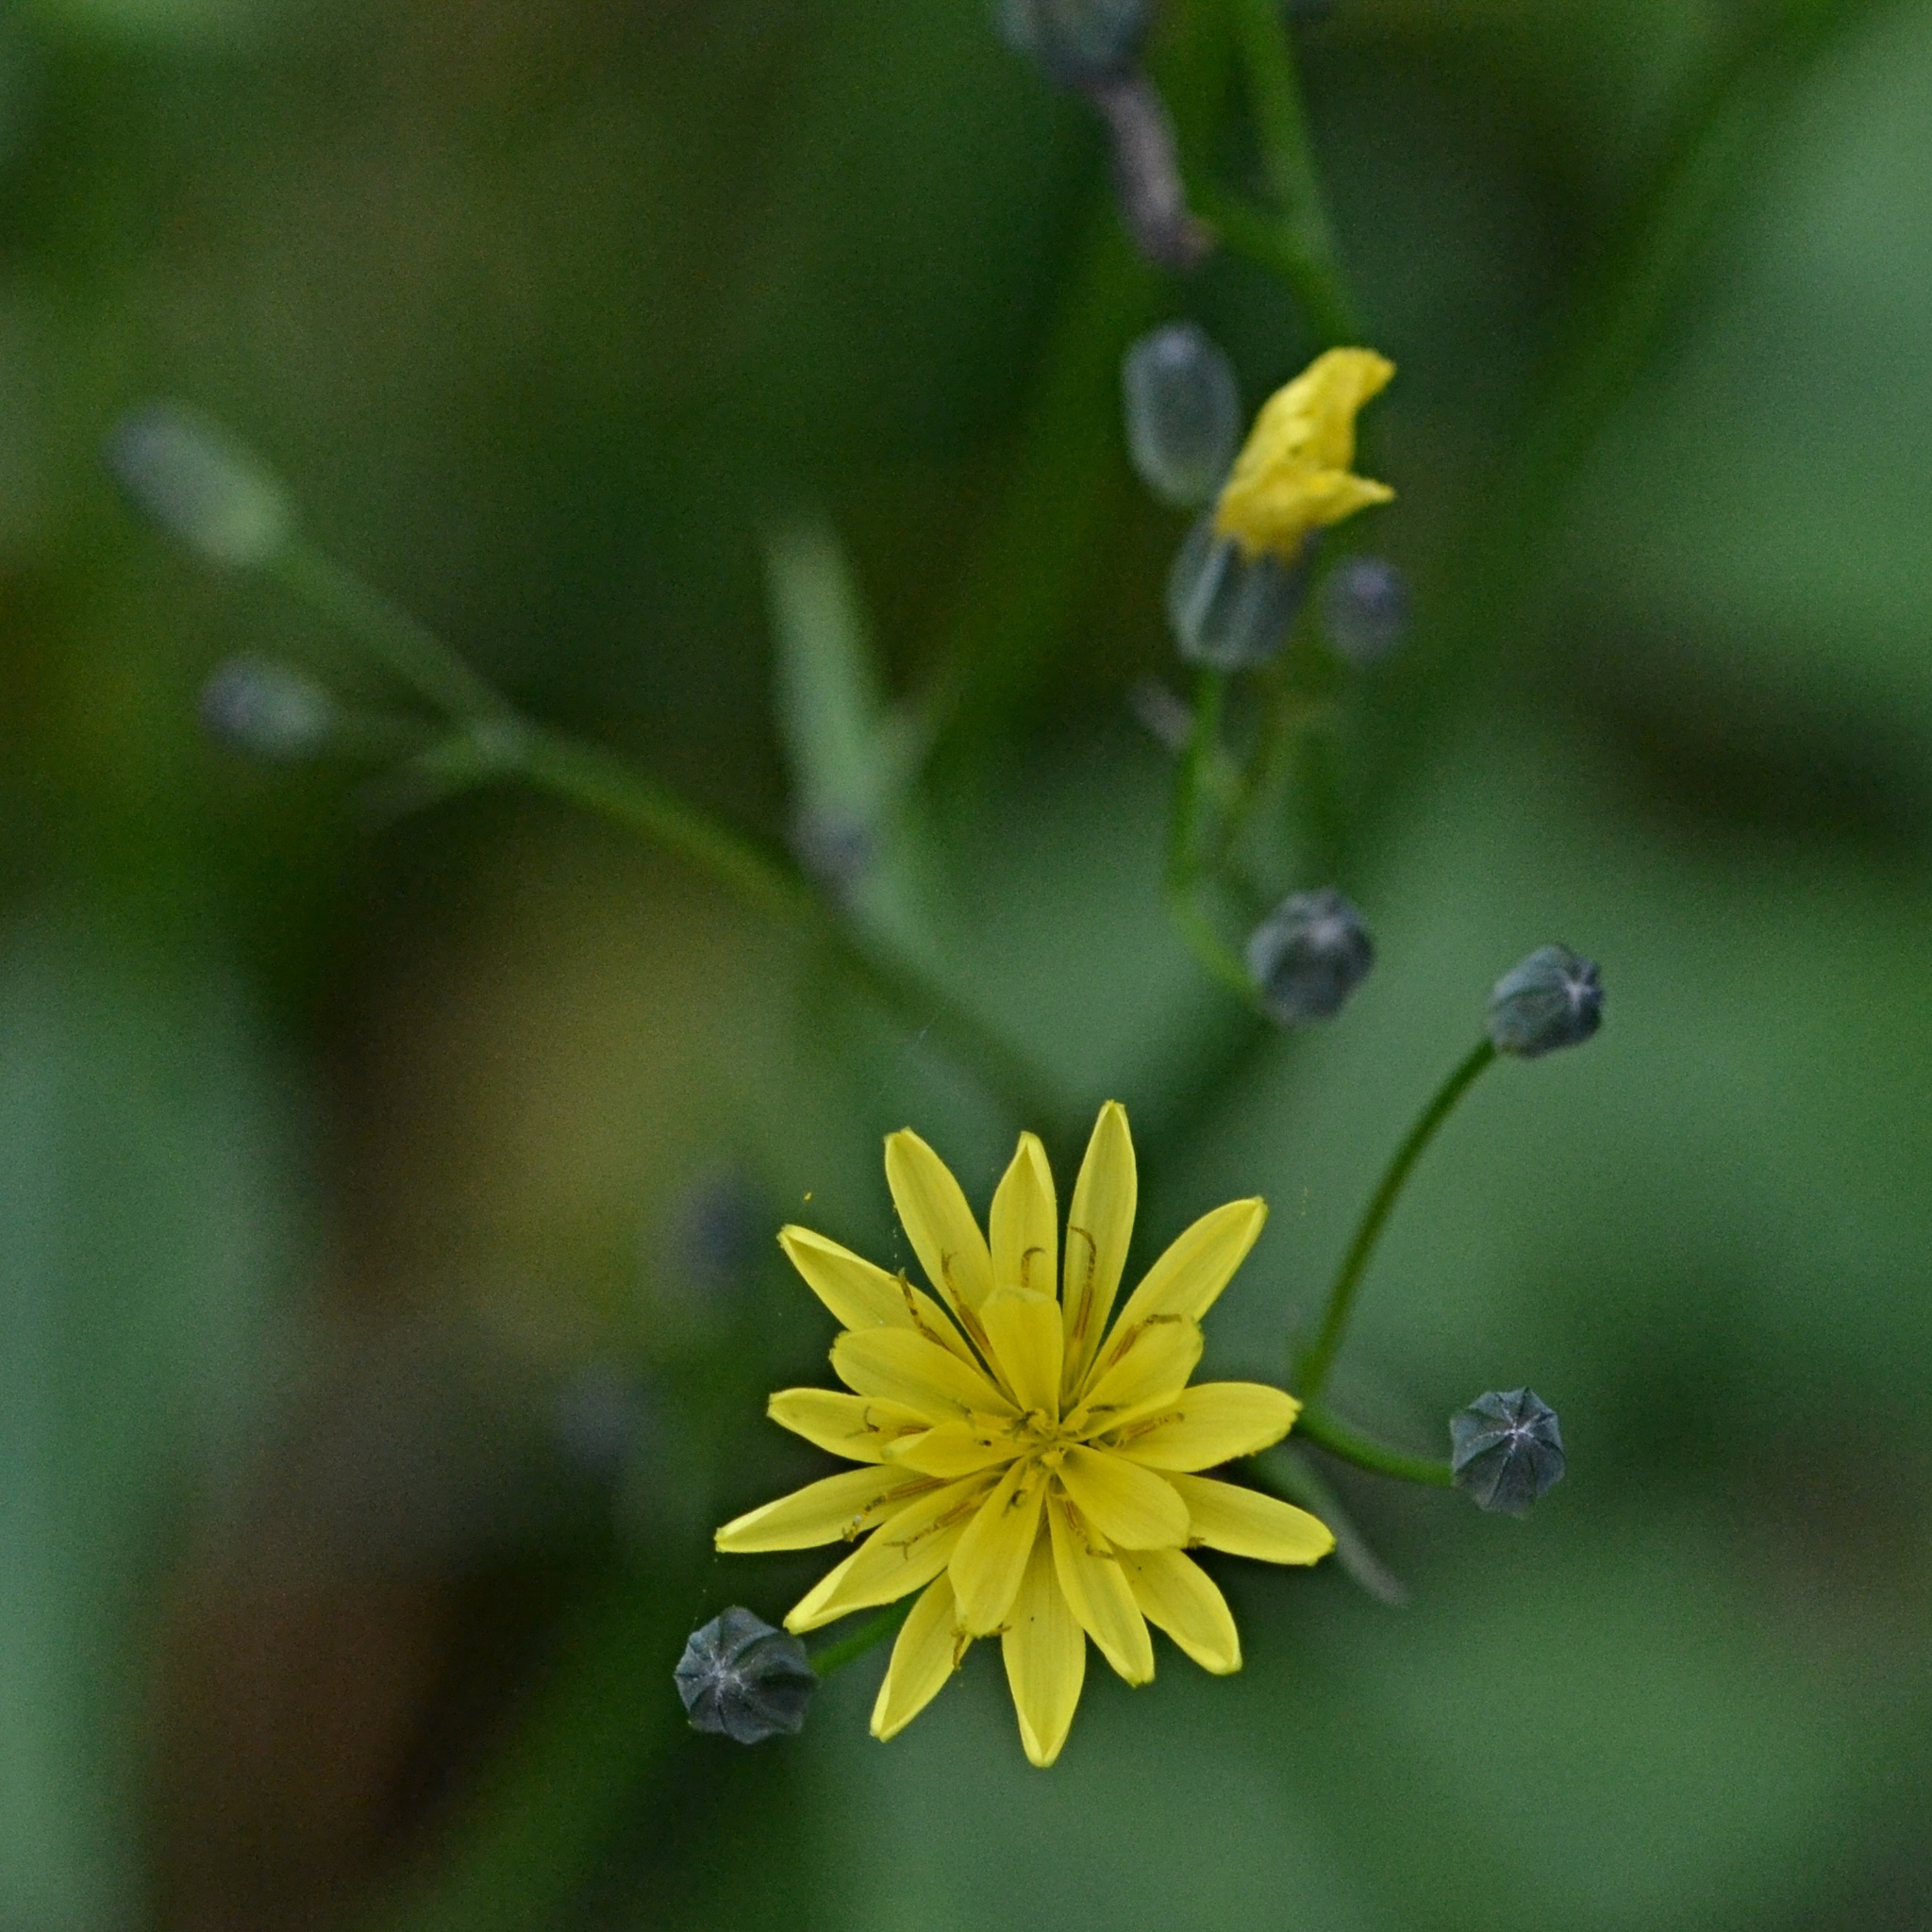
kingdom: Plantae
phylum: Tracheophyta
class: Magnoliopsida
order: Asterales
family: Asteraceae
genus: Lapsana
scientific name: Lapsana communis
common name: Nipplewort
